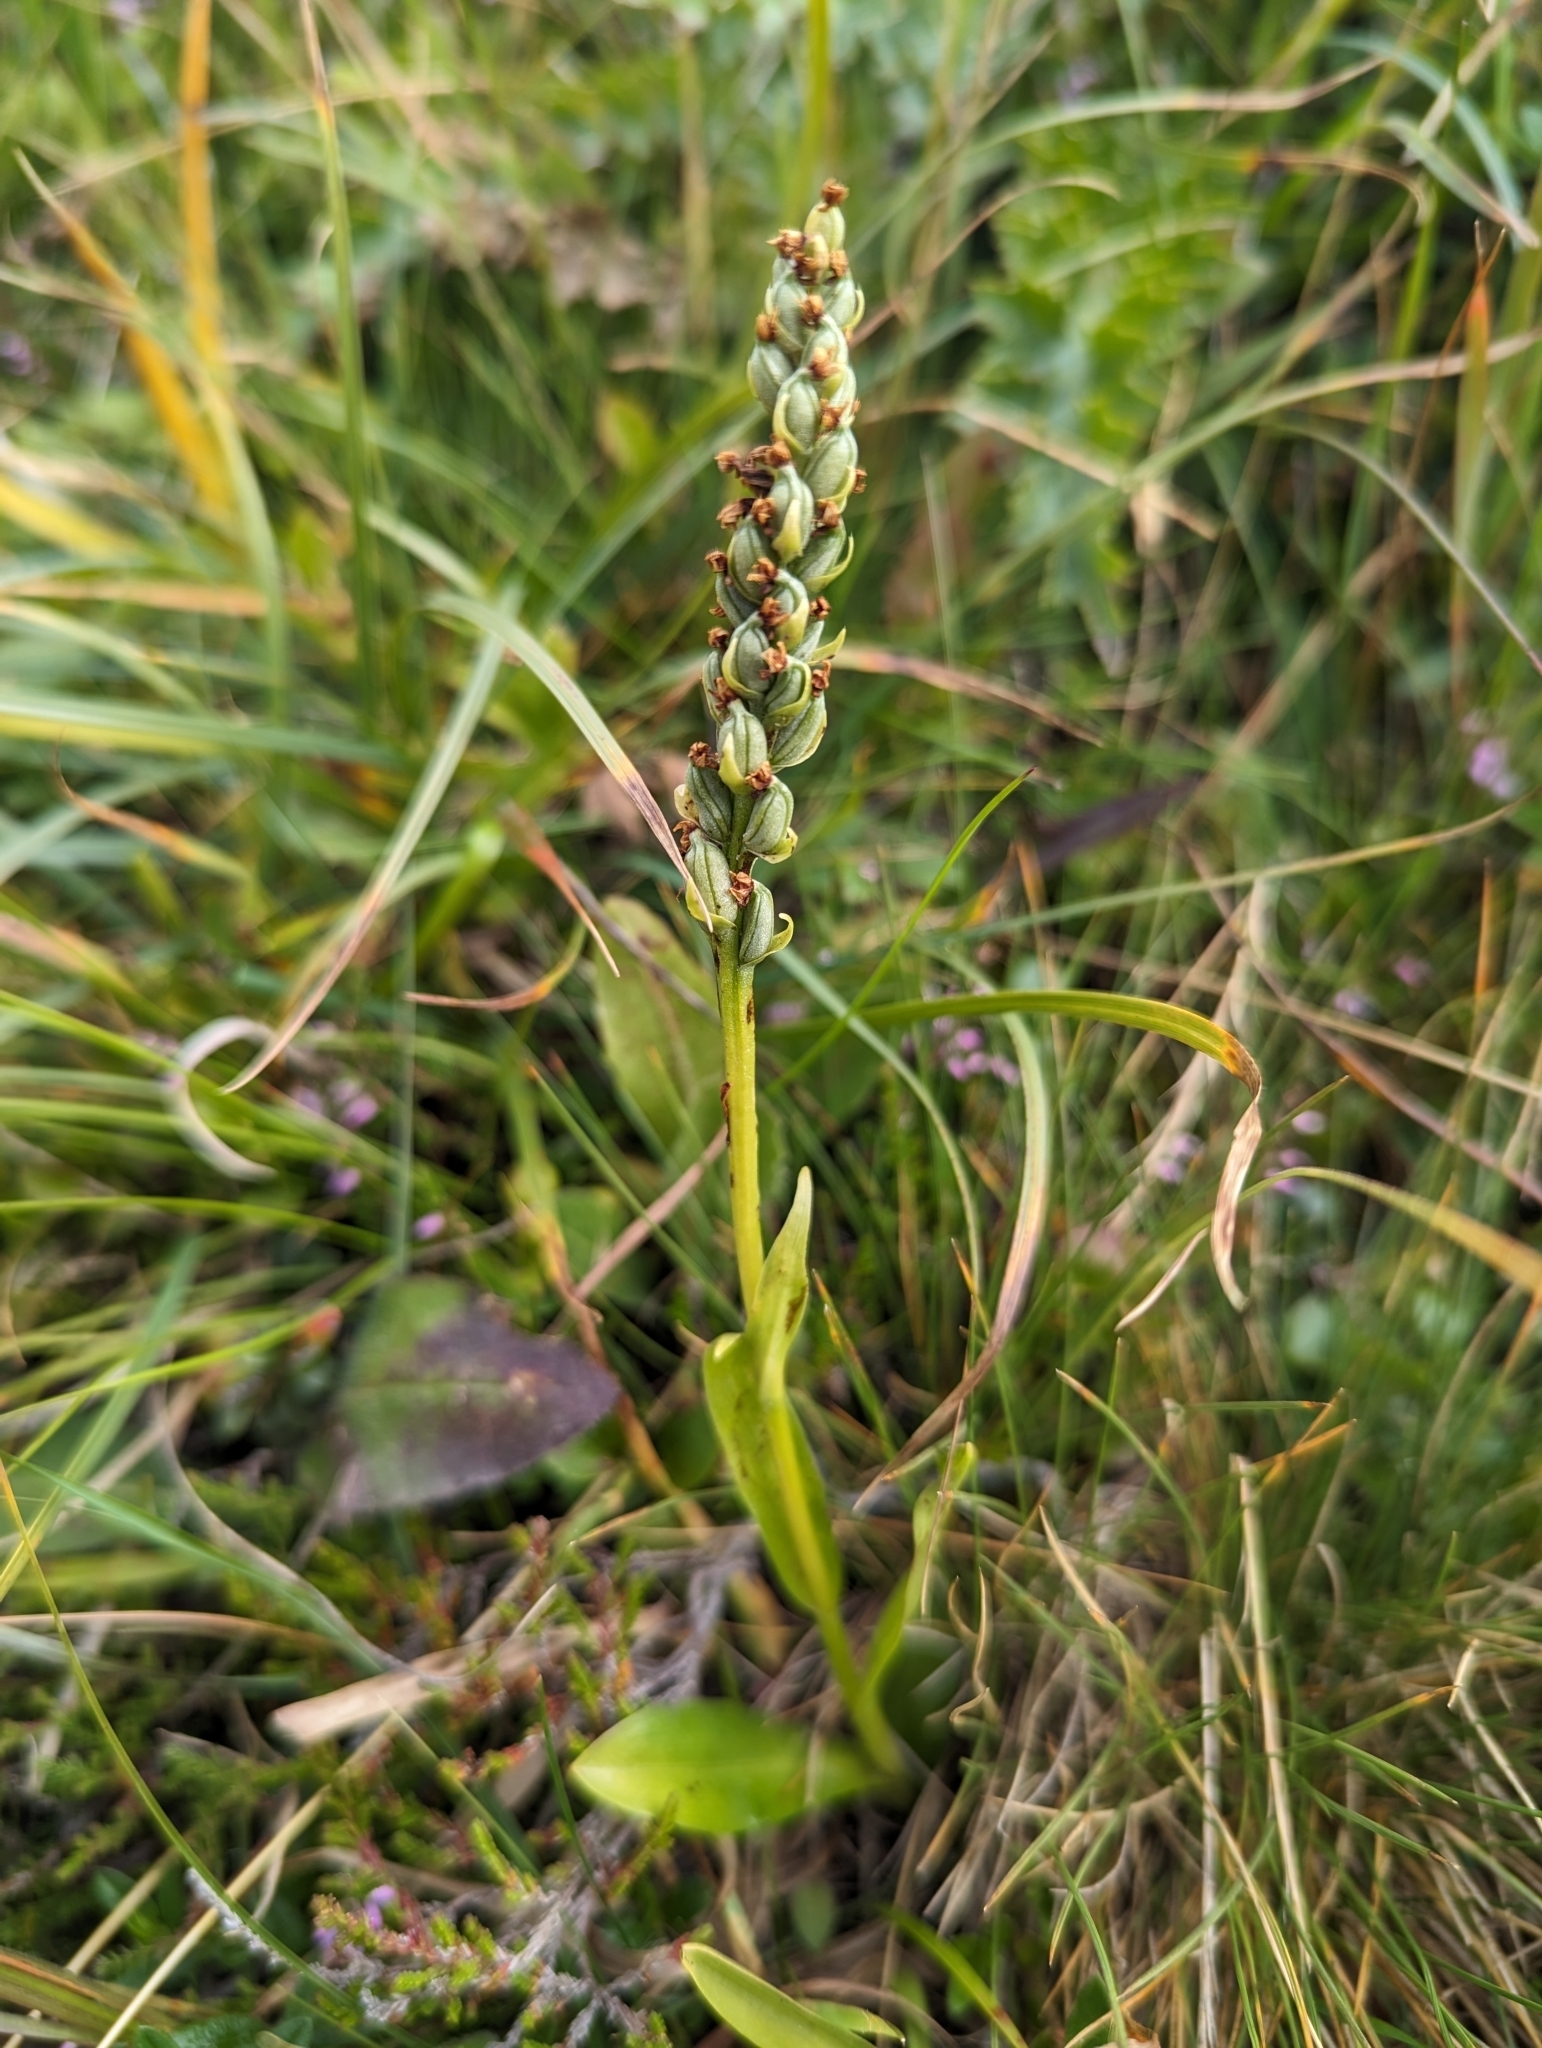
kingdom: Plantae
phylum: Tracheophyta
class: Liliopsida
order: Asparagales
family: Orchidaceae
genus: Pseudorchis
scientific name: Pseudorchis albida
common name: Small-white orchid
